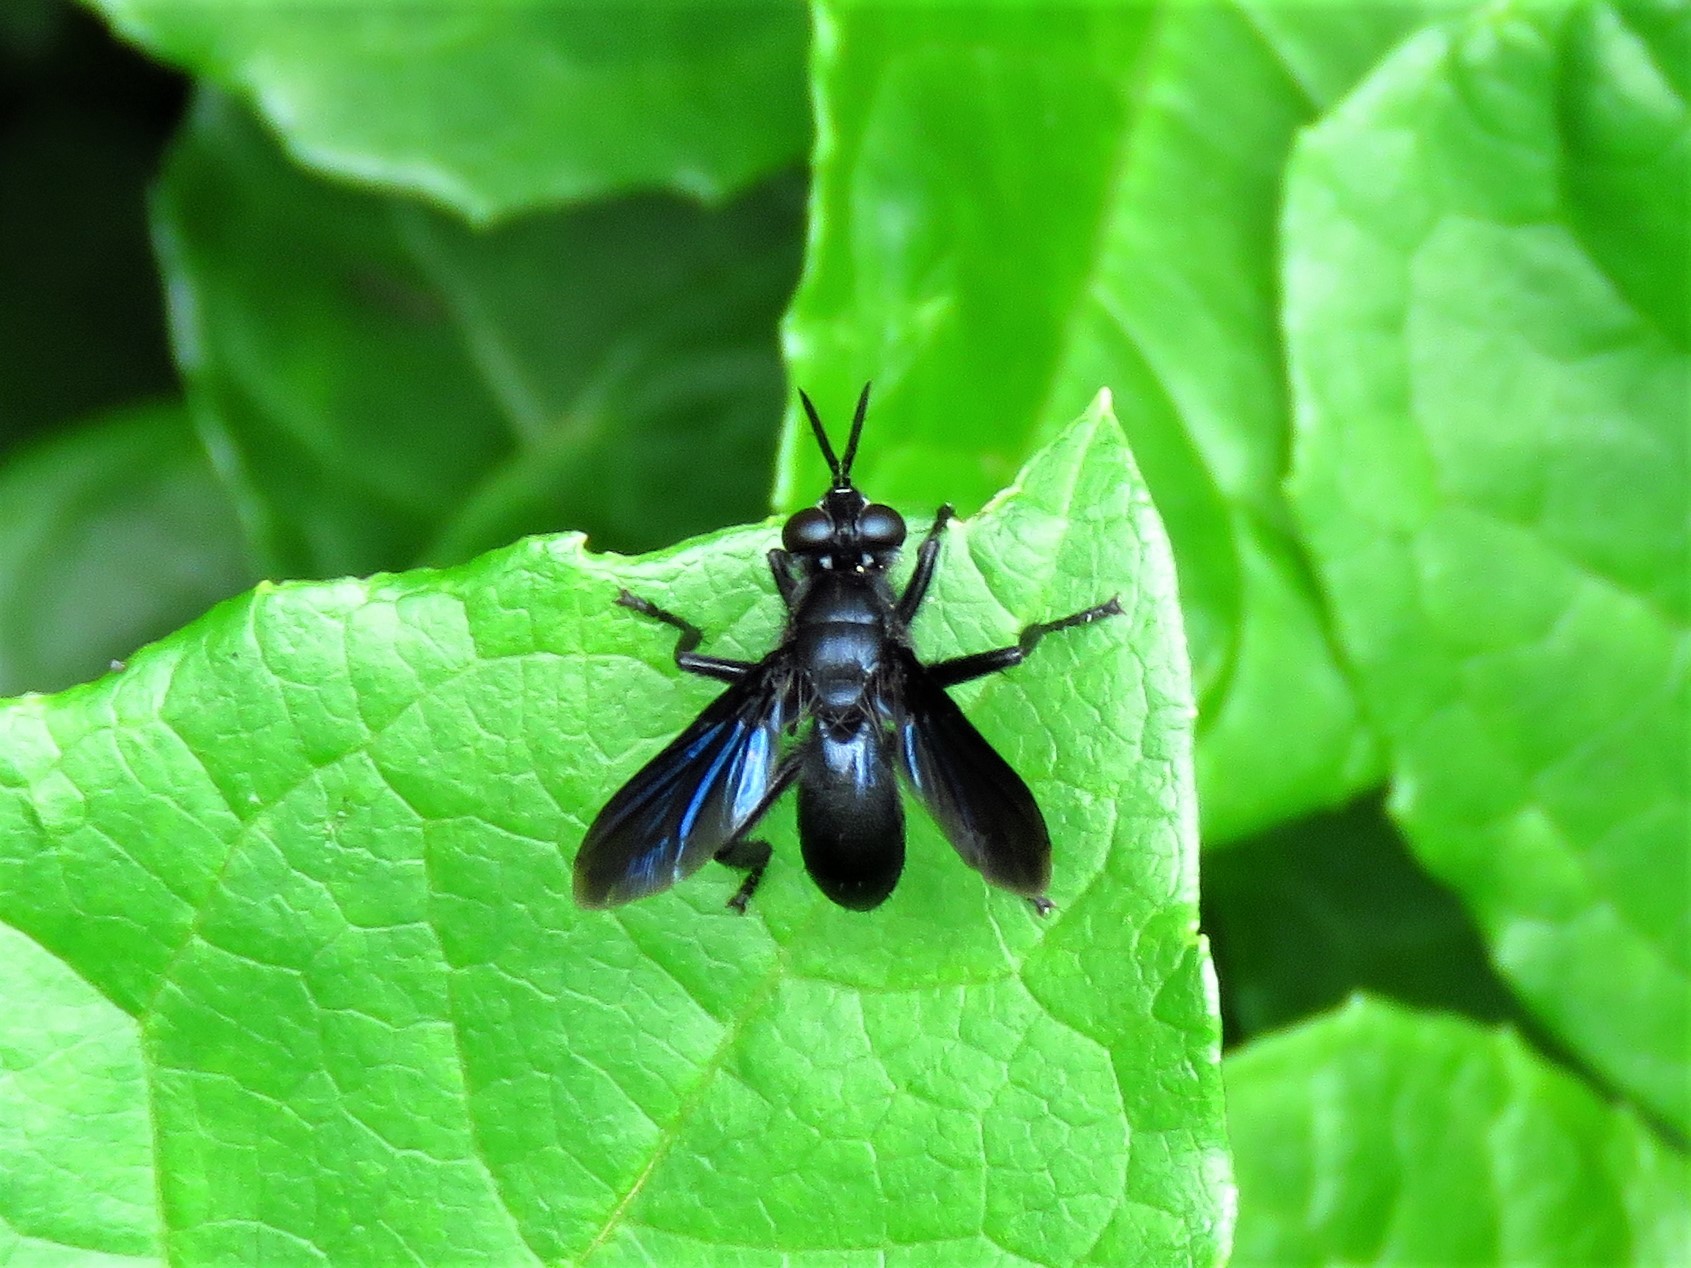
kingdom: Animalia
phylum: Arthropoda
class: Insecta
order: Diptera
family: Tachinidae
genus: Penthosia
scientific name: Penthosia satanica
